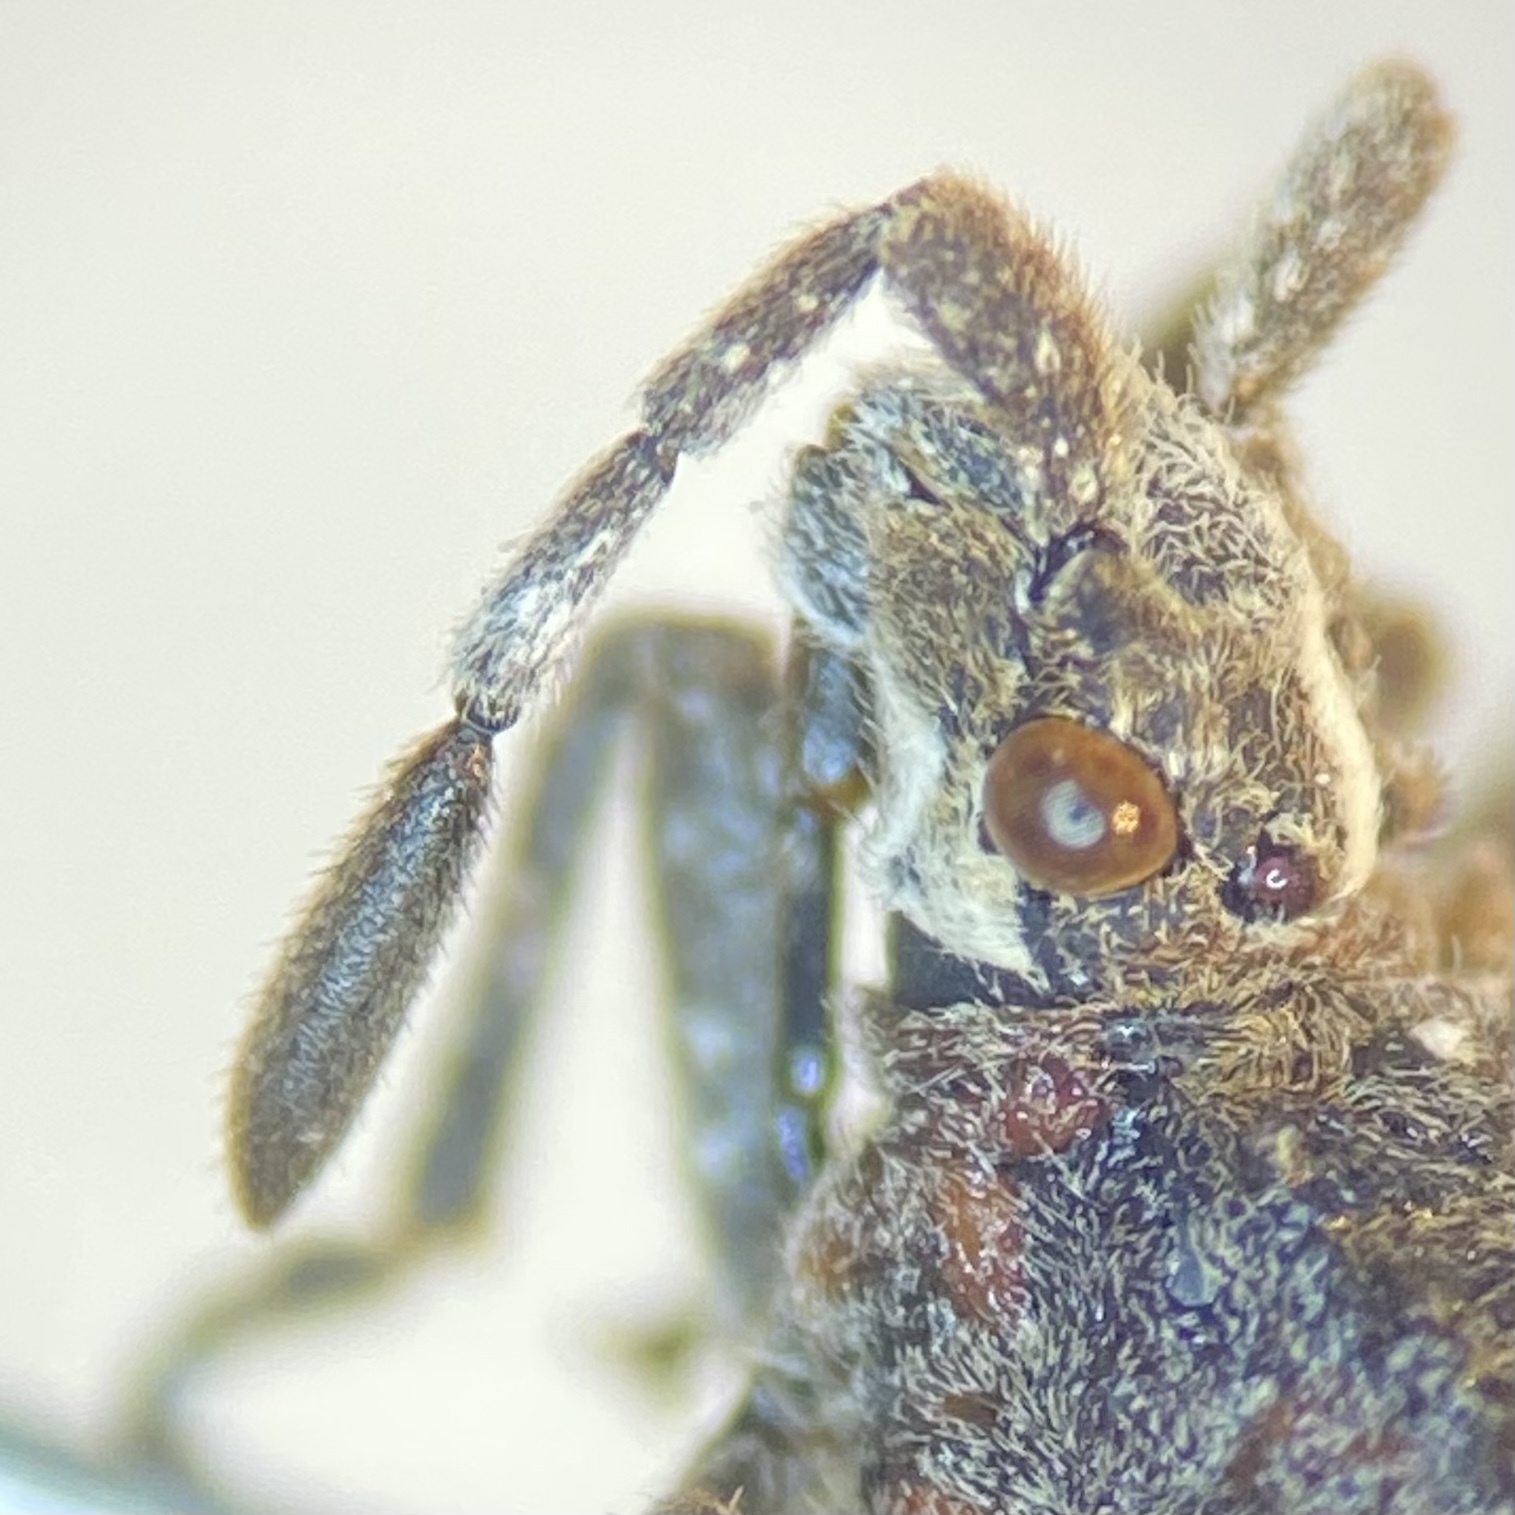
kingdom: Animalia
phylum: Arthropoda
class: Insecta
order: Hemiptera
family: Coreidae
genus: Merocoris
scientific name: Merocoris curtatus
